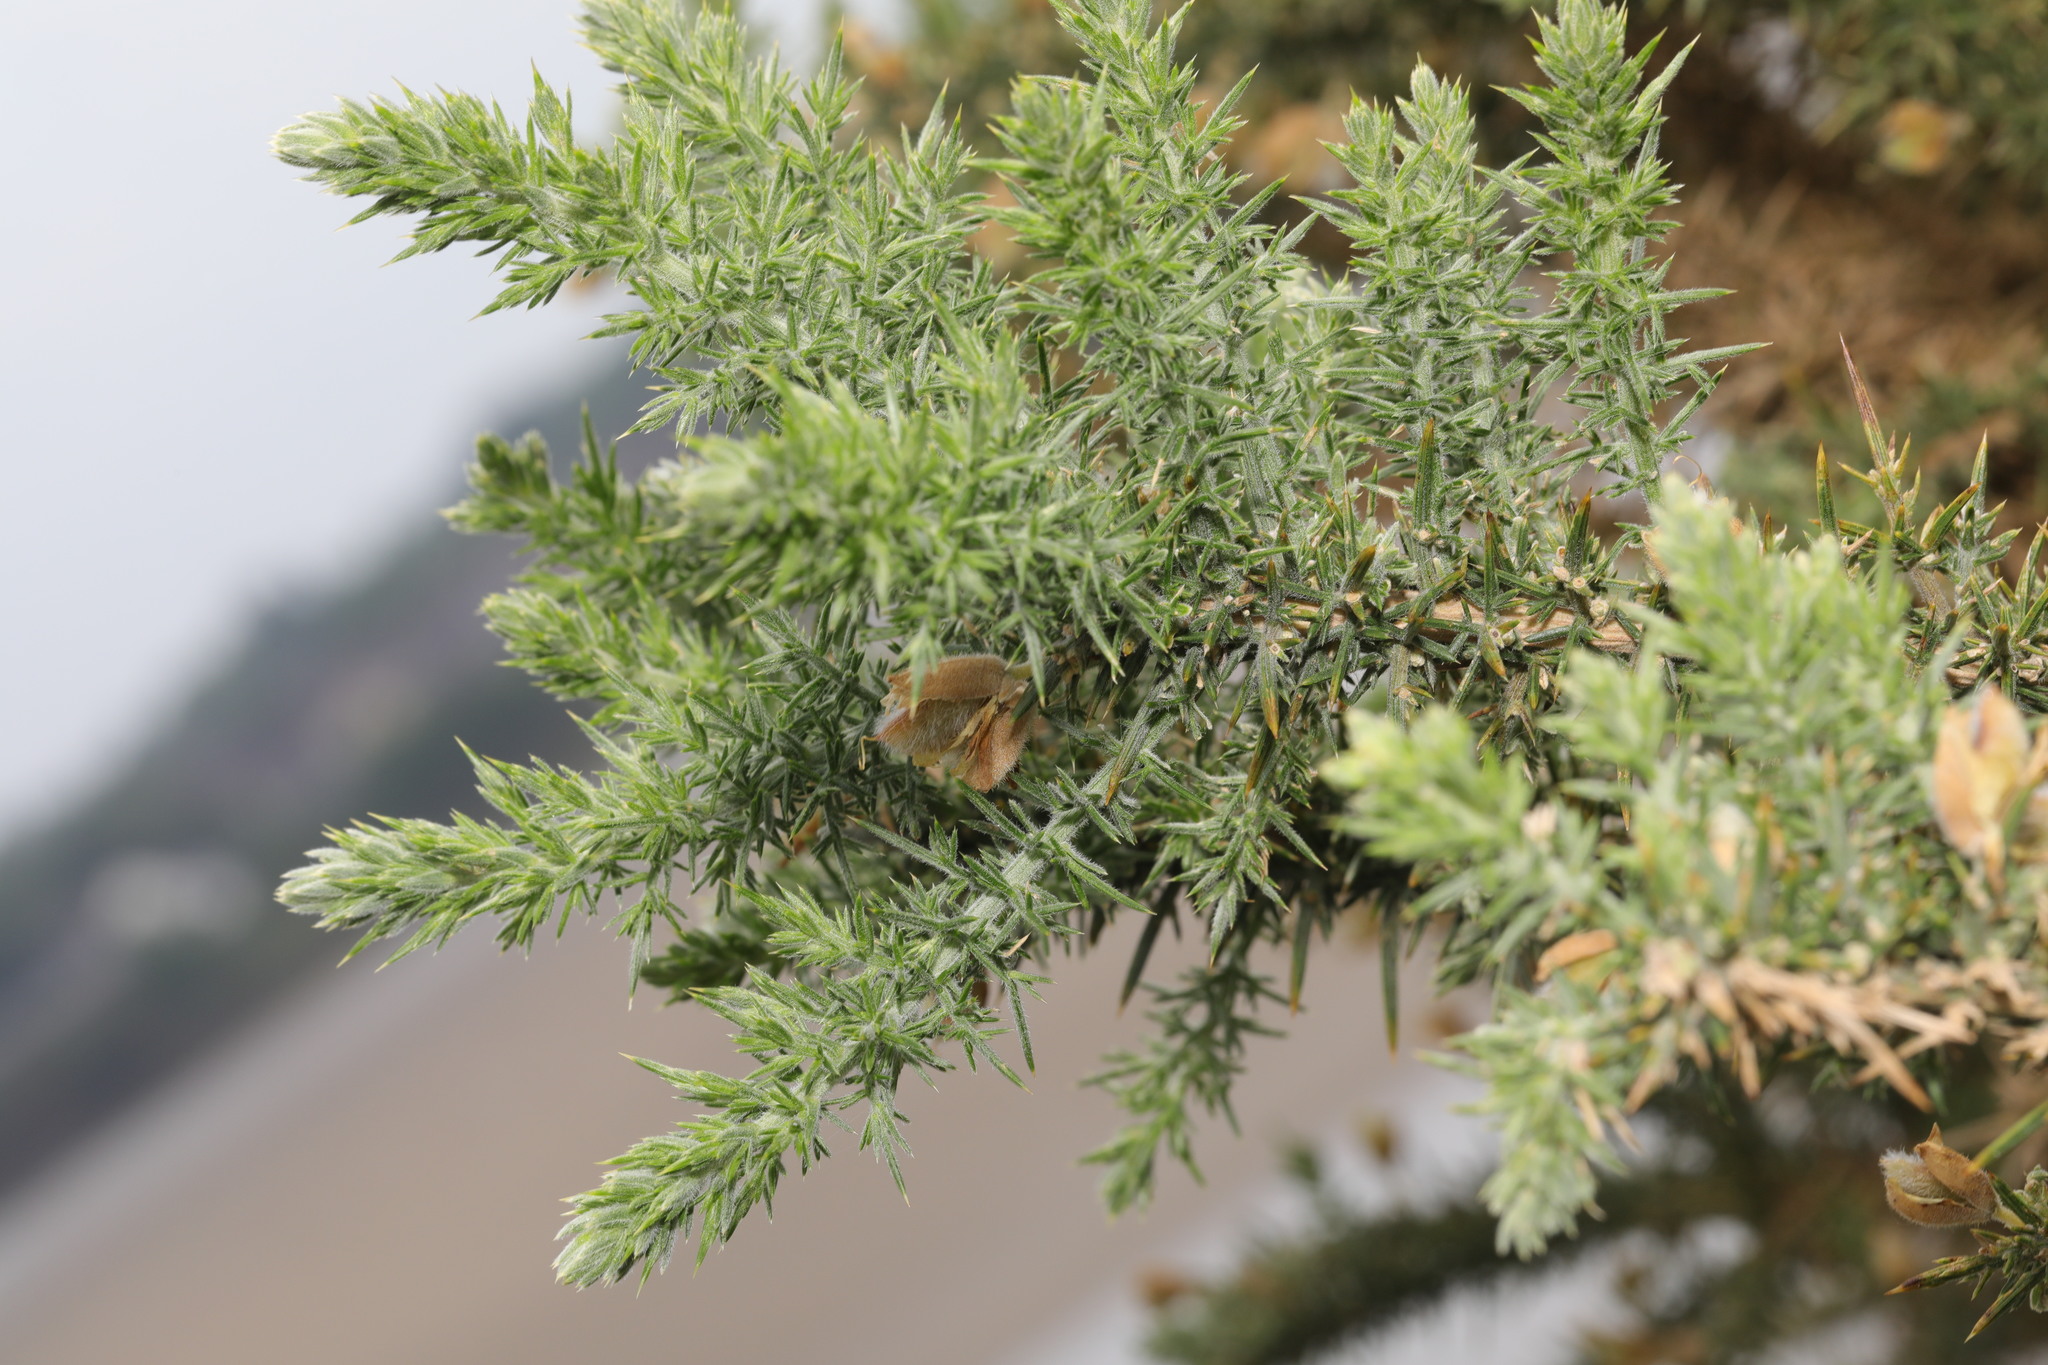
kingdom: Plantae
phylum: Tracheophyta
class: Magnoliopsida
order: Fabales
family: Fabaceae
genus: Ulex
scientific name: Ulex europaeus
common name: Common gorse
